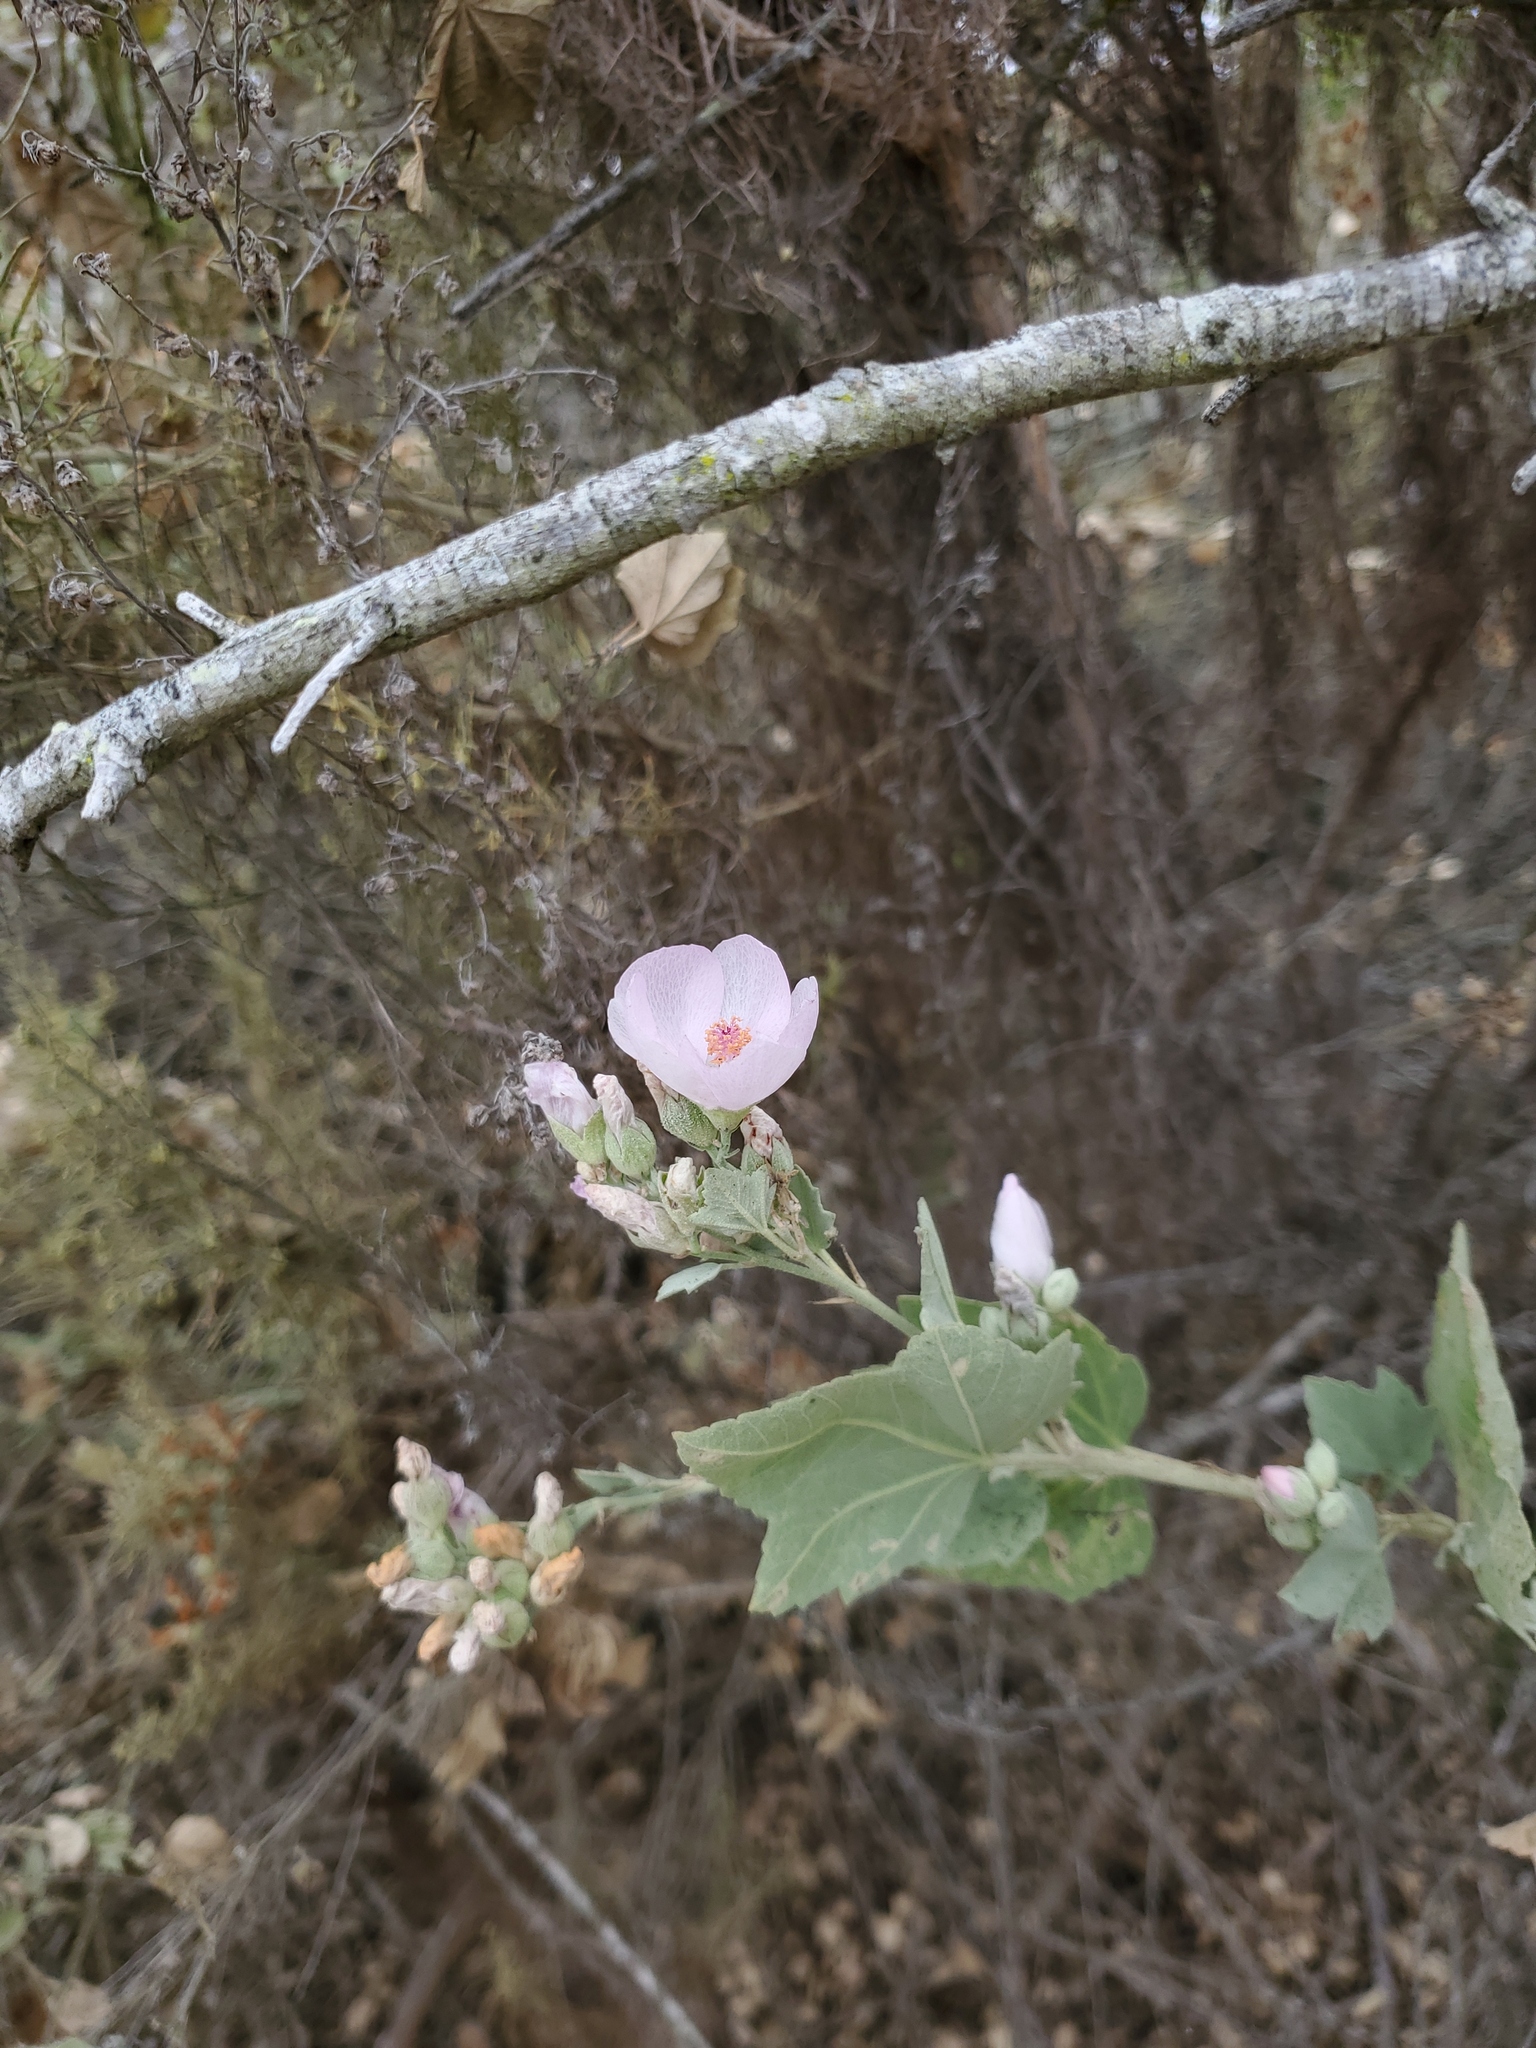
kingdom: Plantae
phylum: Tracheophyta
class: Magnoliopsida
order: Malvales
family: Malvaceae
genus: Malacothamnus
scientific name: Malacothamnus fasciculatus
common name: Sant cruz island bush-mallow
